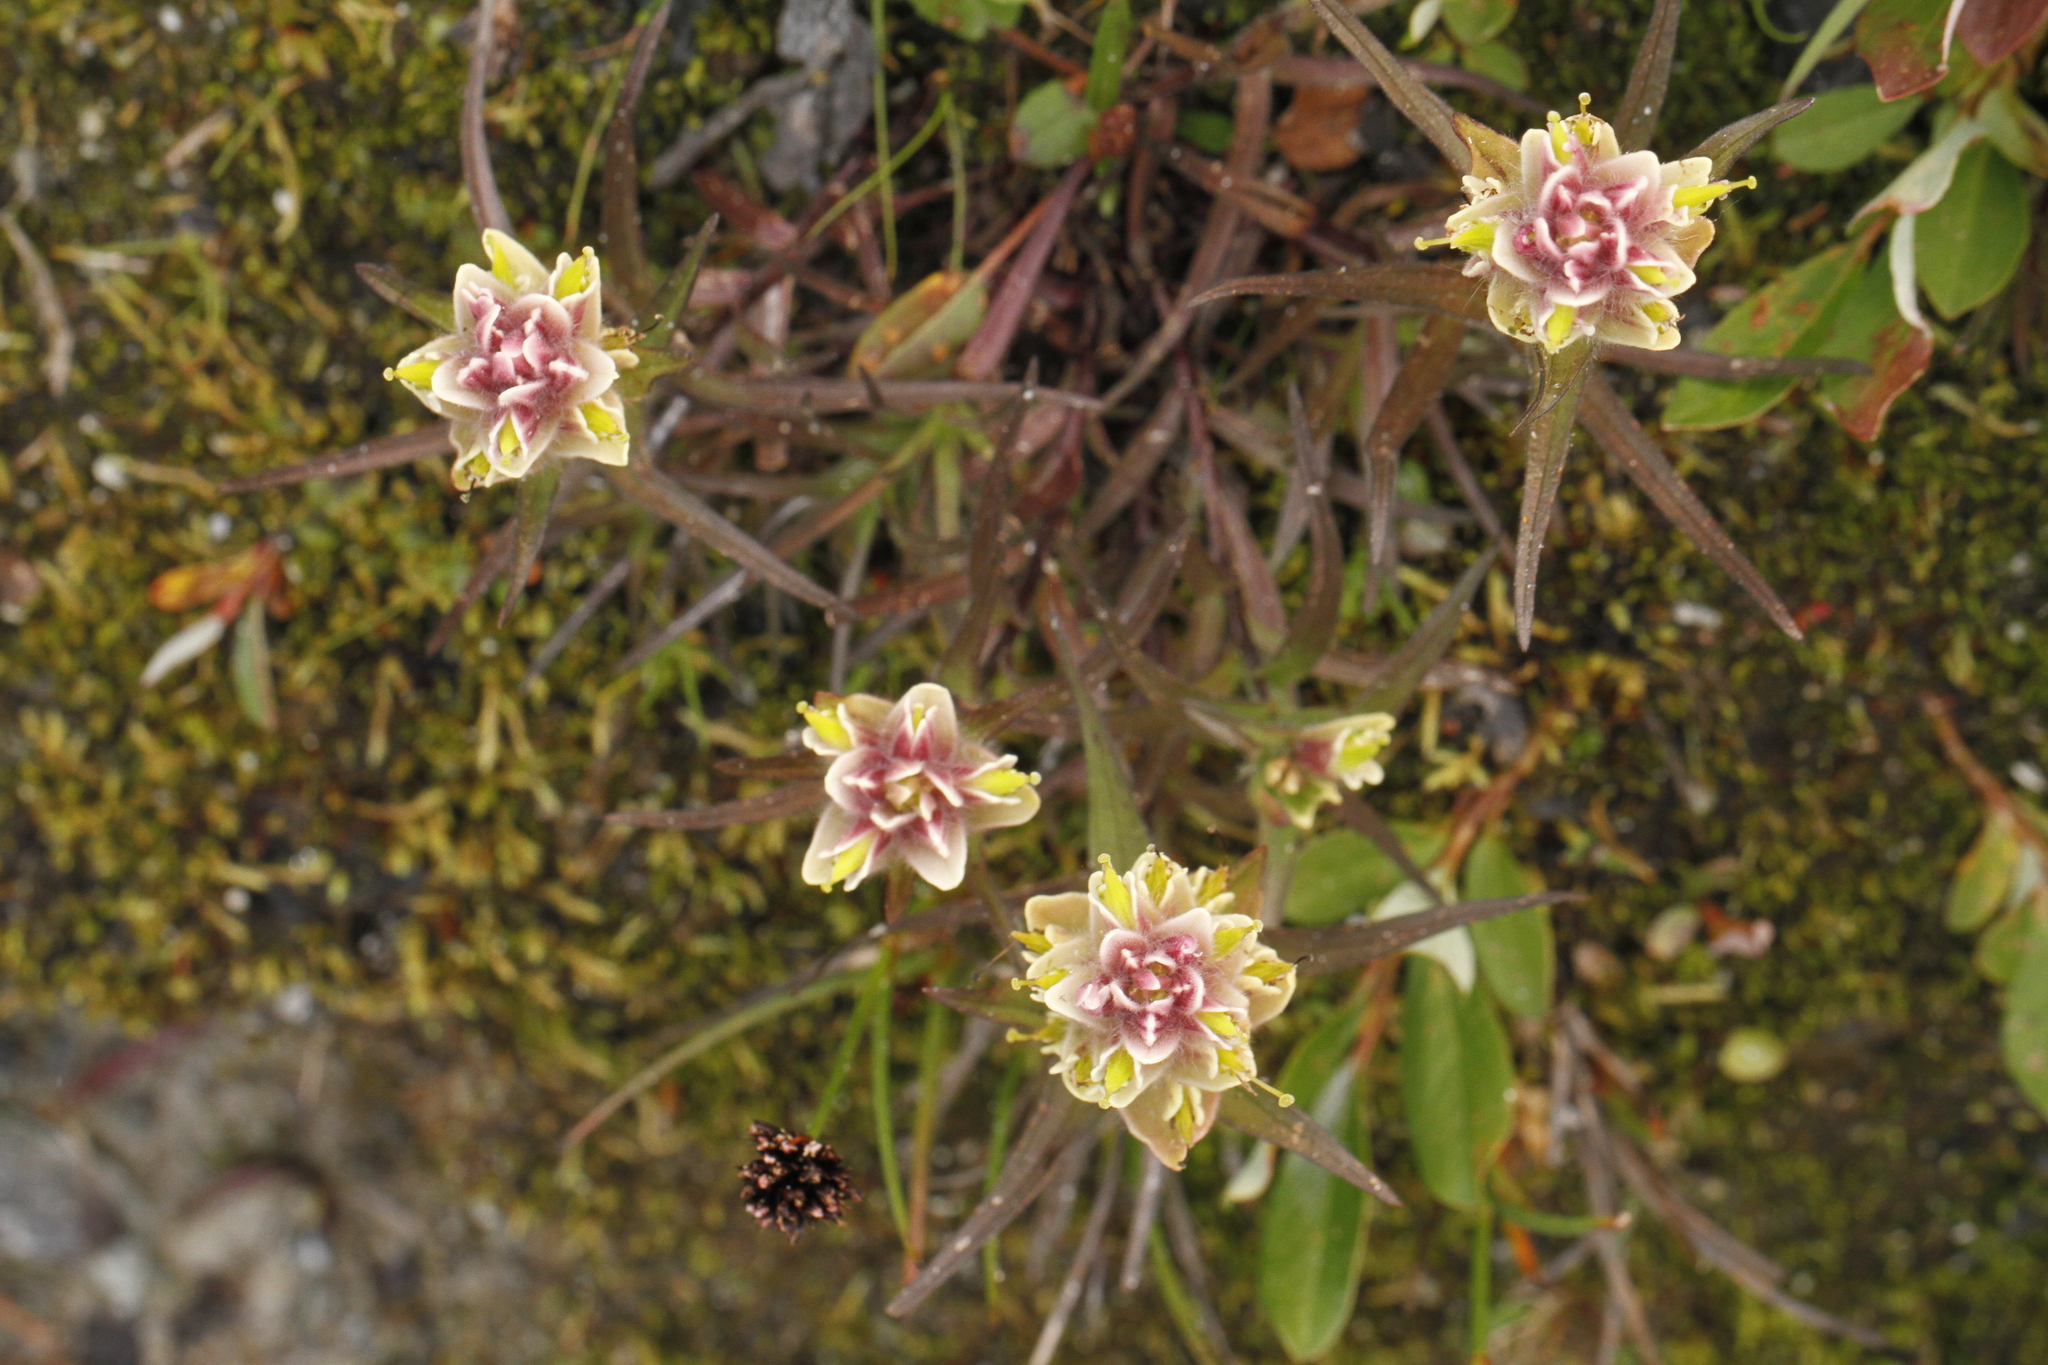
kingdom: Plantae
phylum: Tracheophyta
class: Magnoliopsida
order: Lamiales
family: Orobanchaceae
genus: Castilleja
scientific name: Castilleja occidentalis
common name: Western paintbrush
